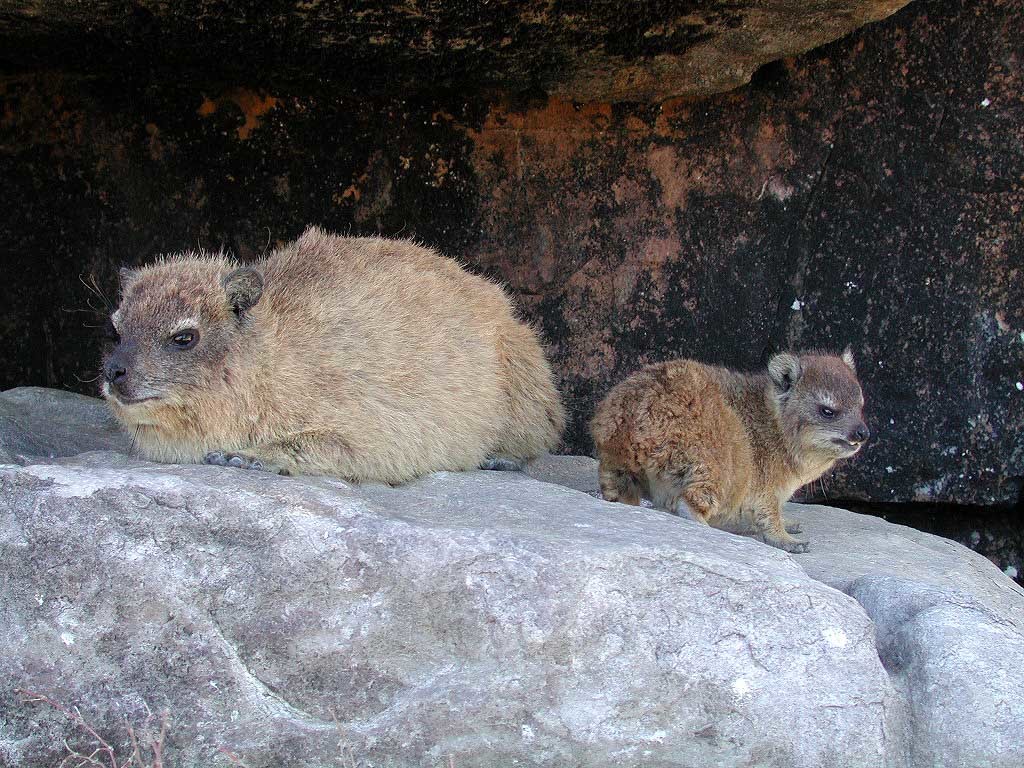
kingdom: Animalia
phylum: Chordata
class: Mammalia
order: Hyracoidea
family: Procaviidae
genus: Procavia
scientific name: Procavia capensis
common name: Rock hyrax
